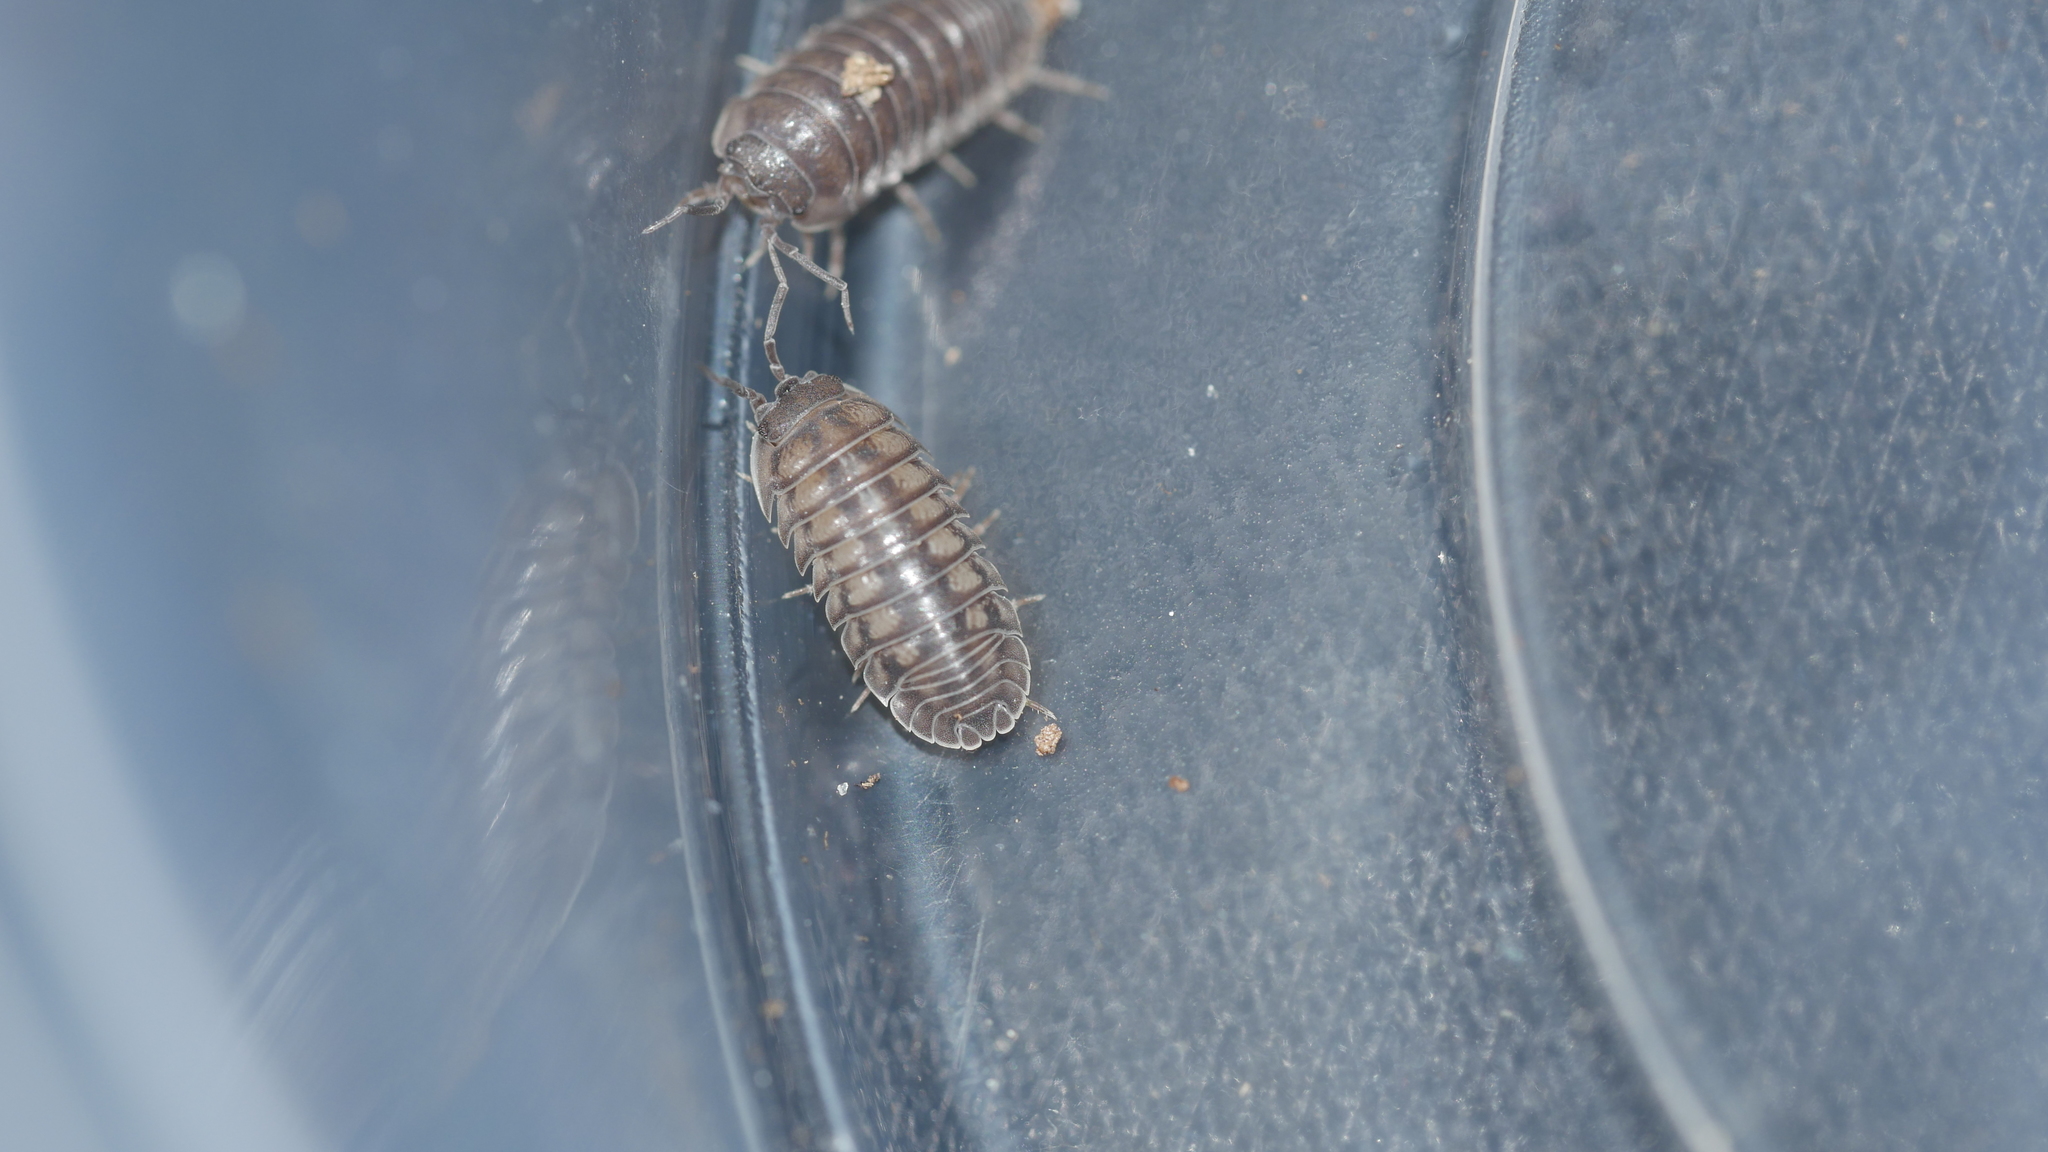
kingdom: Animalia
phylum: Arthropoda
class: Malacostraca
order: Isopoda
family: Armadillidiidae
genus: Armadillidium
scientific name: Armadillidium nasatum
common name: Isopod
